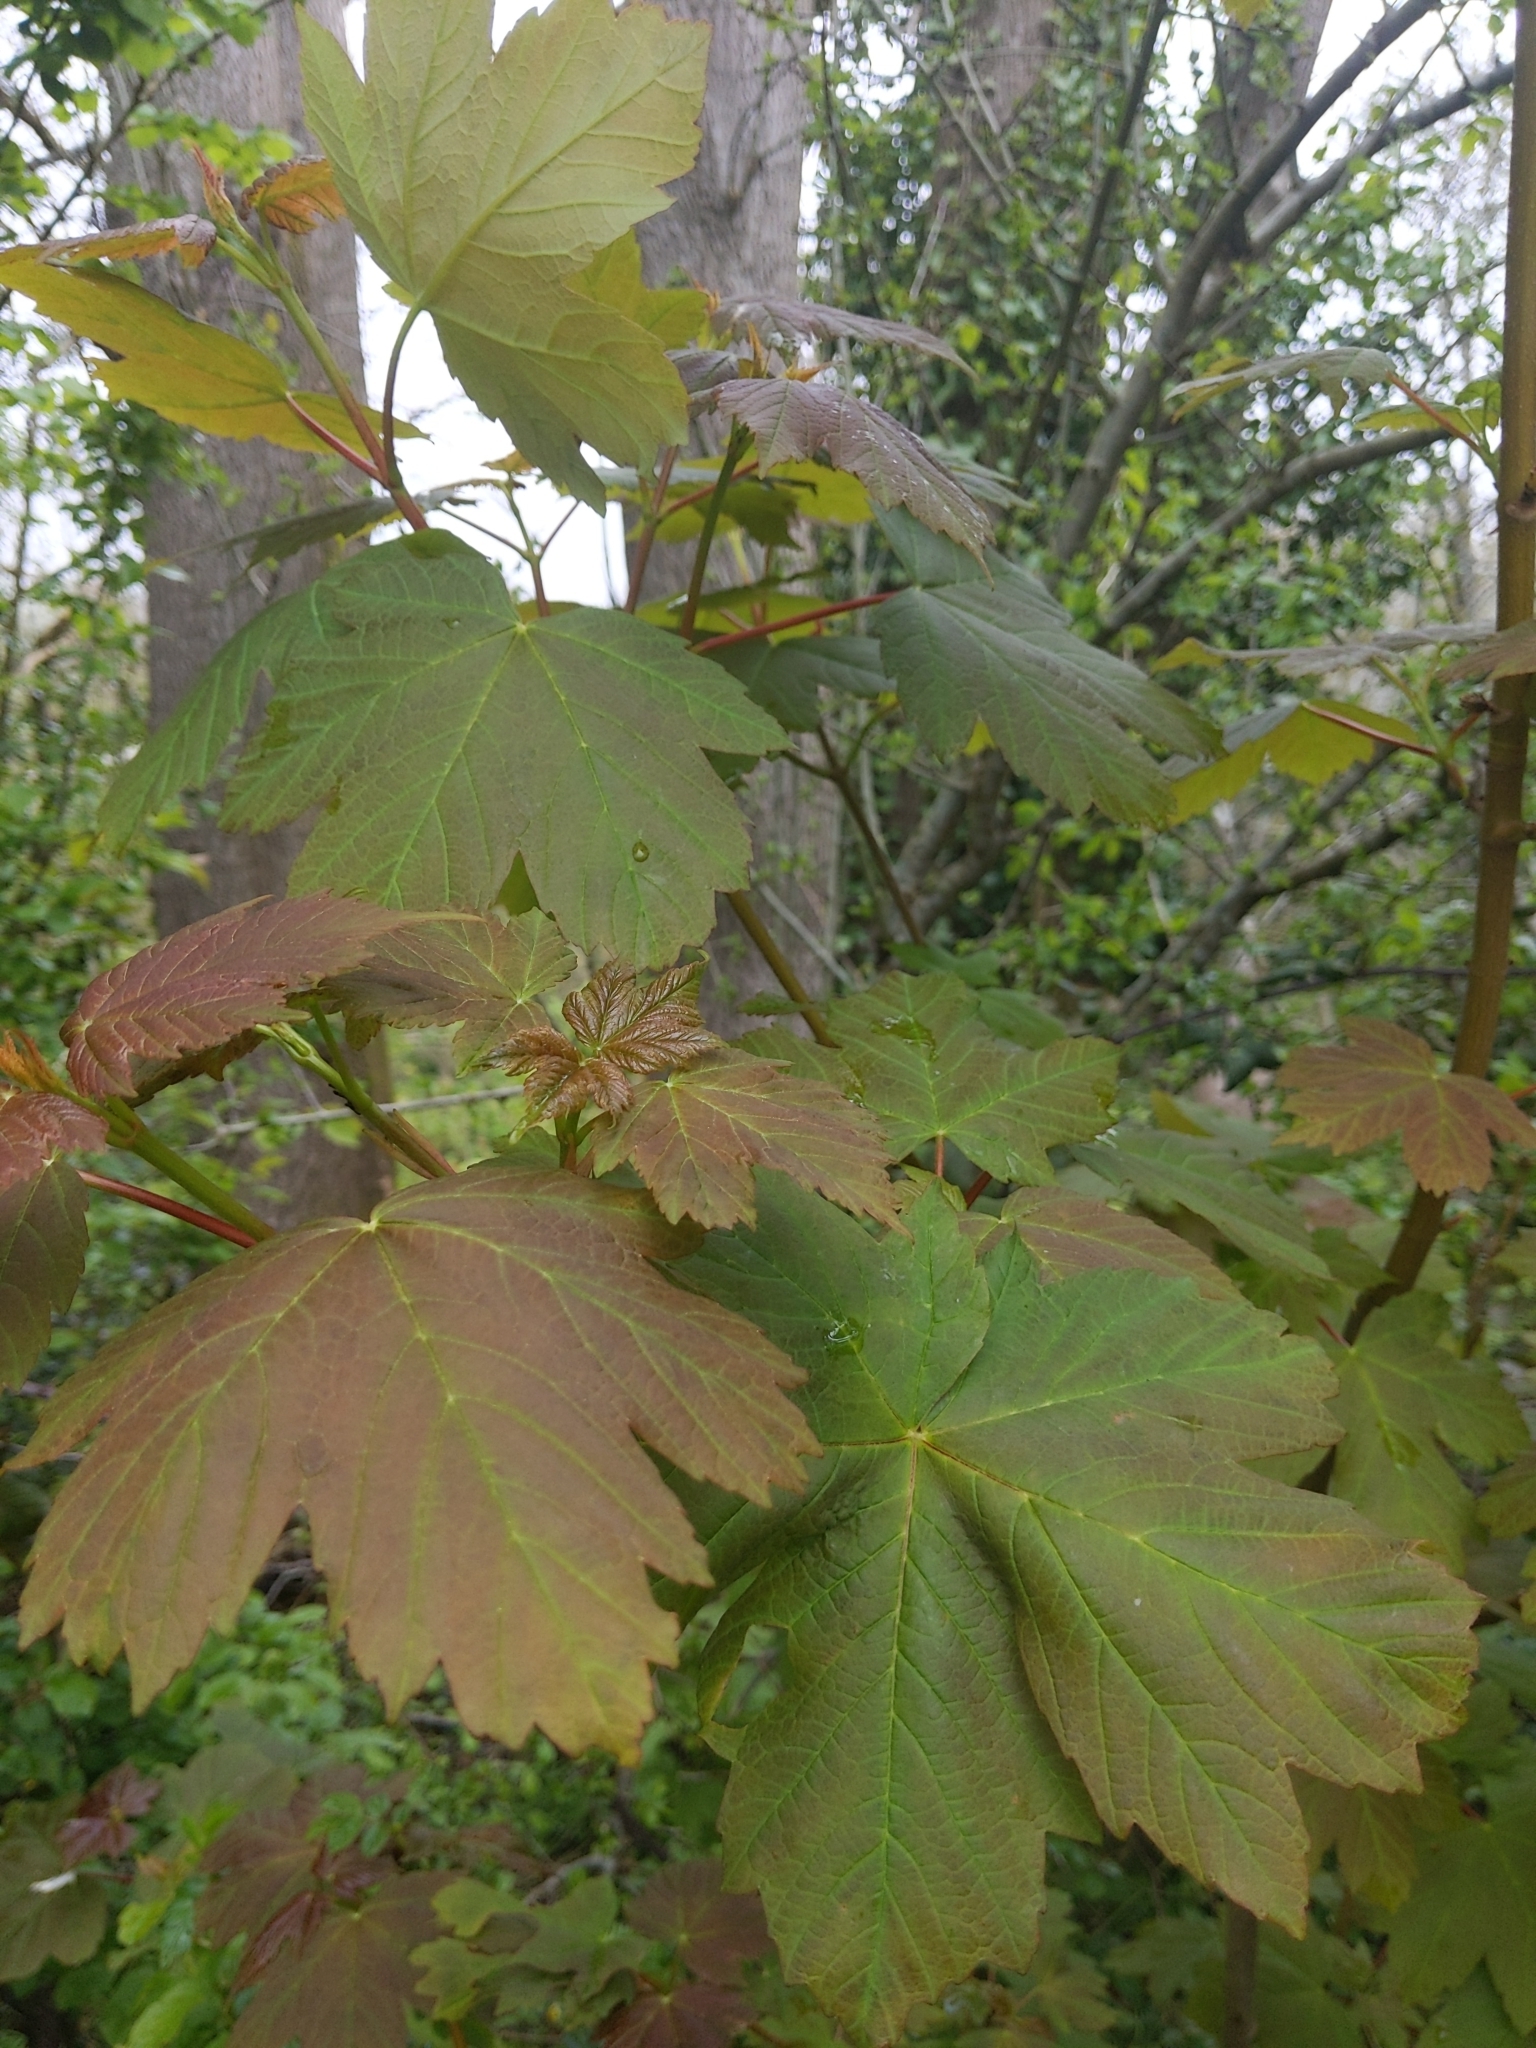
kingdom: Plantae
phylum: Tracheophyta
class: Magnoliopsida
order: Sapindales
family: Sapindaceae
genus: Acer
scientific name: Acer pseudoplatanus
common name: Sycamore
